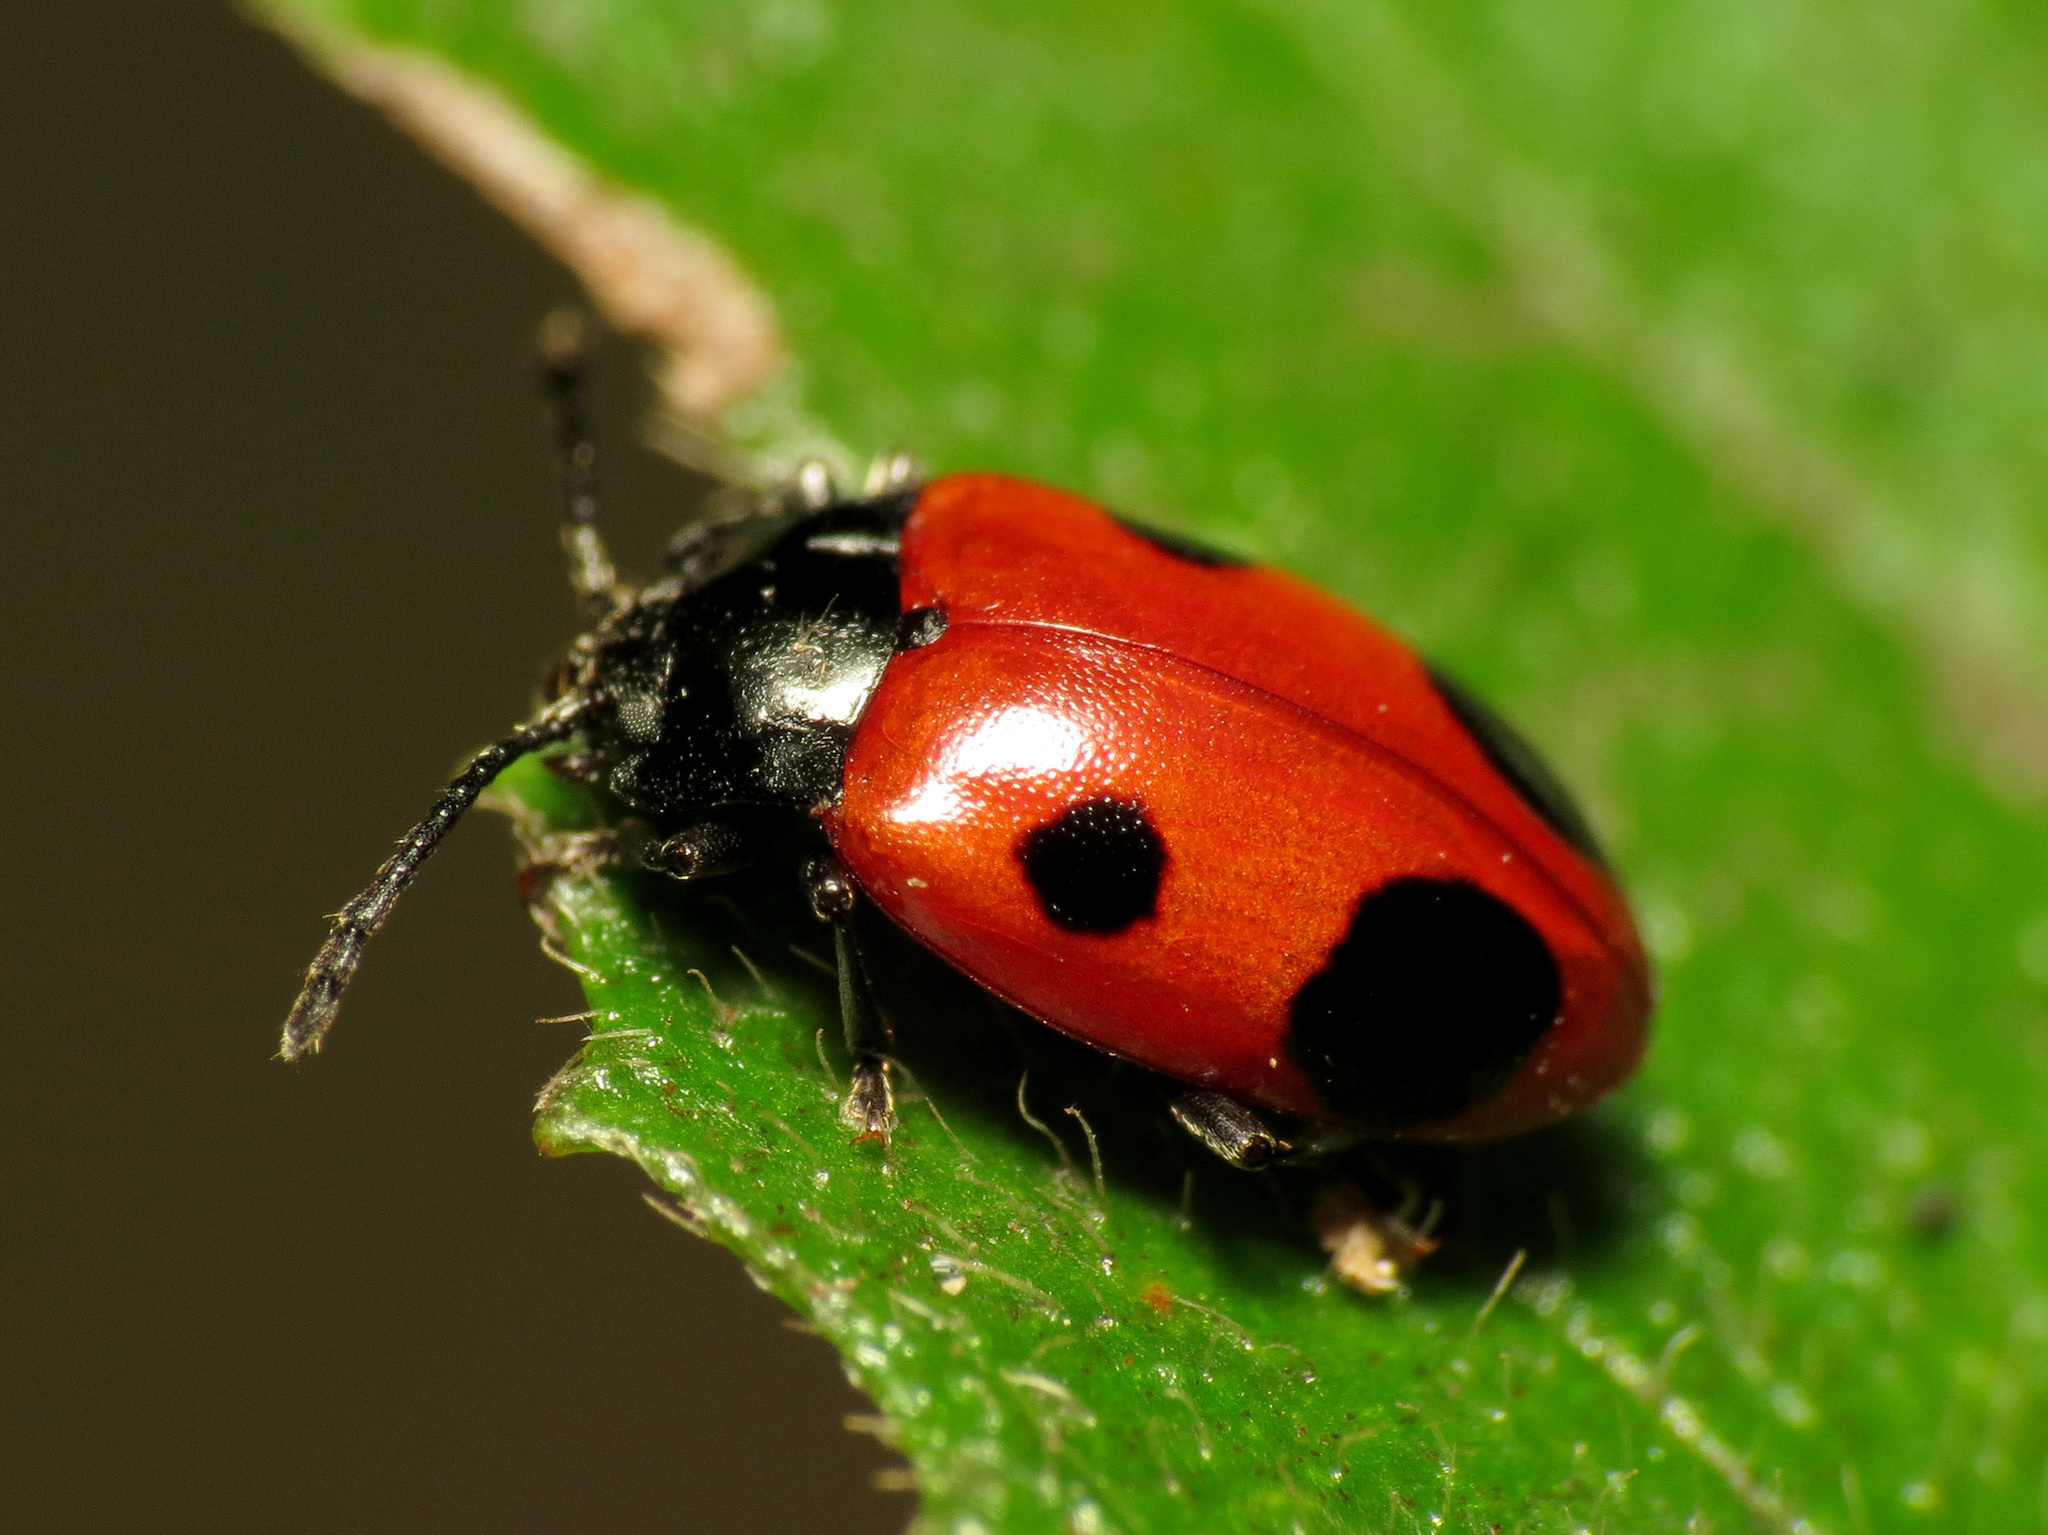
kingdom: Animalia
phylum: Arthropoda
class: Insecta
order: Coleoptera
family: Endomychidae
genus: Endomychus
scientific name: Endomychus biguttatus
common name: Handsome fungus beetle
